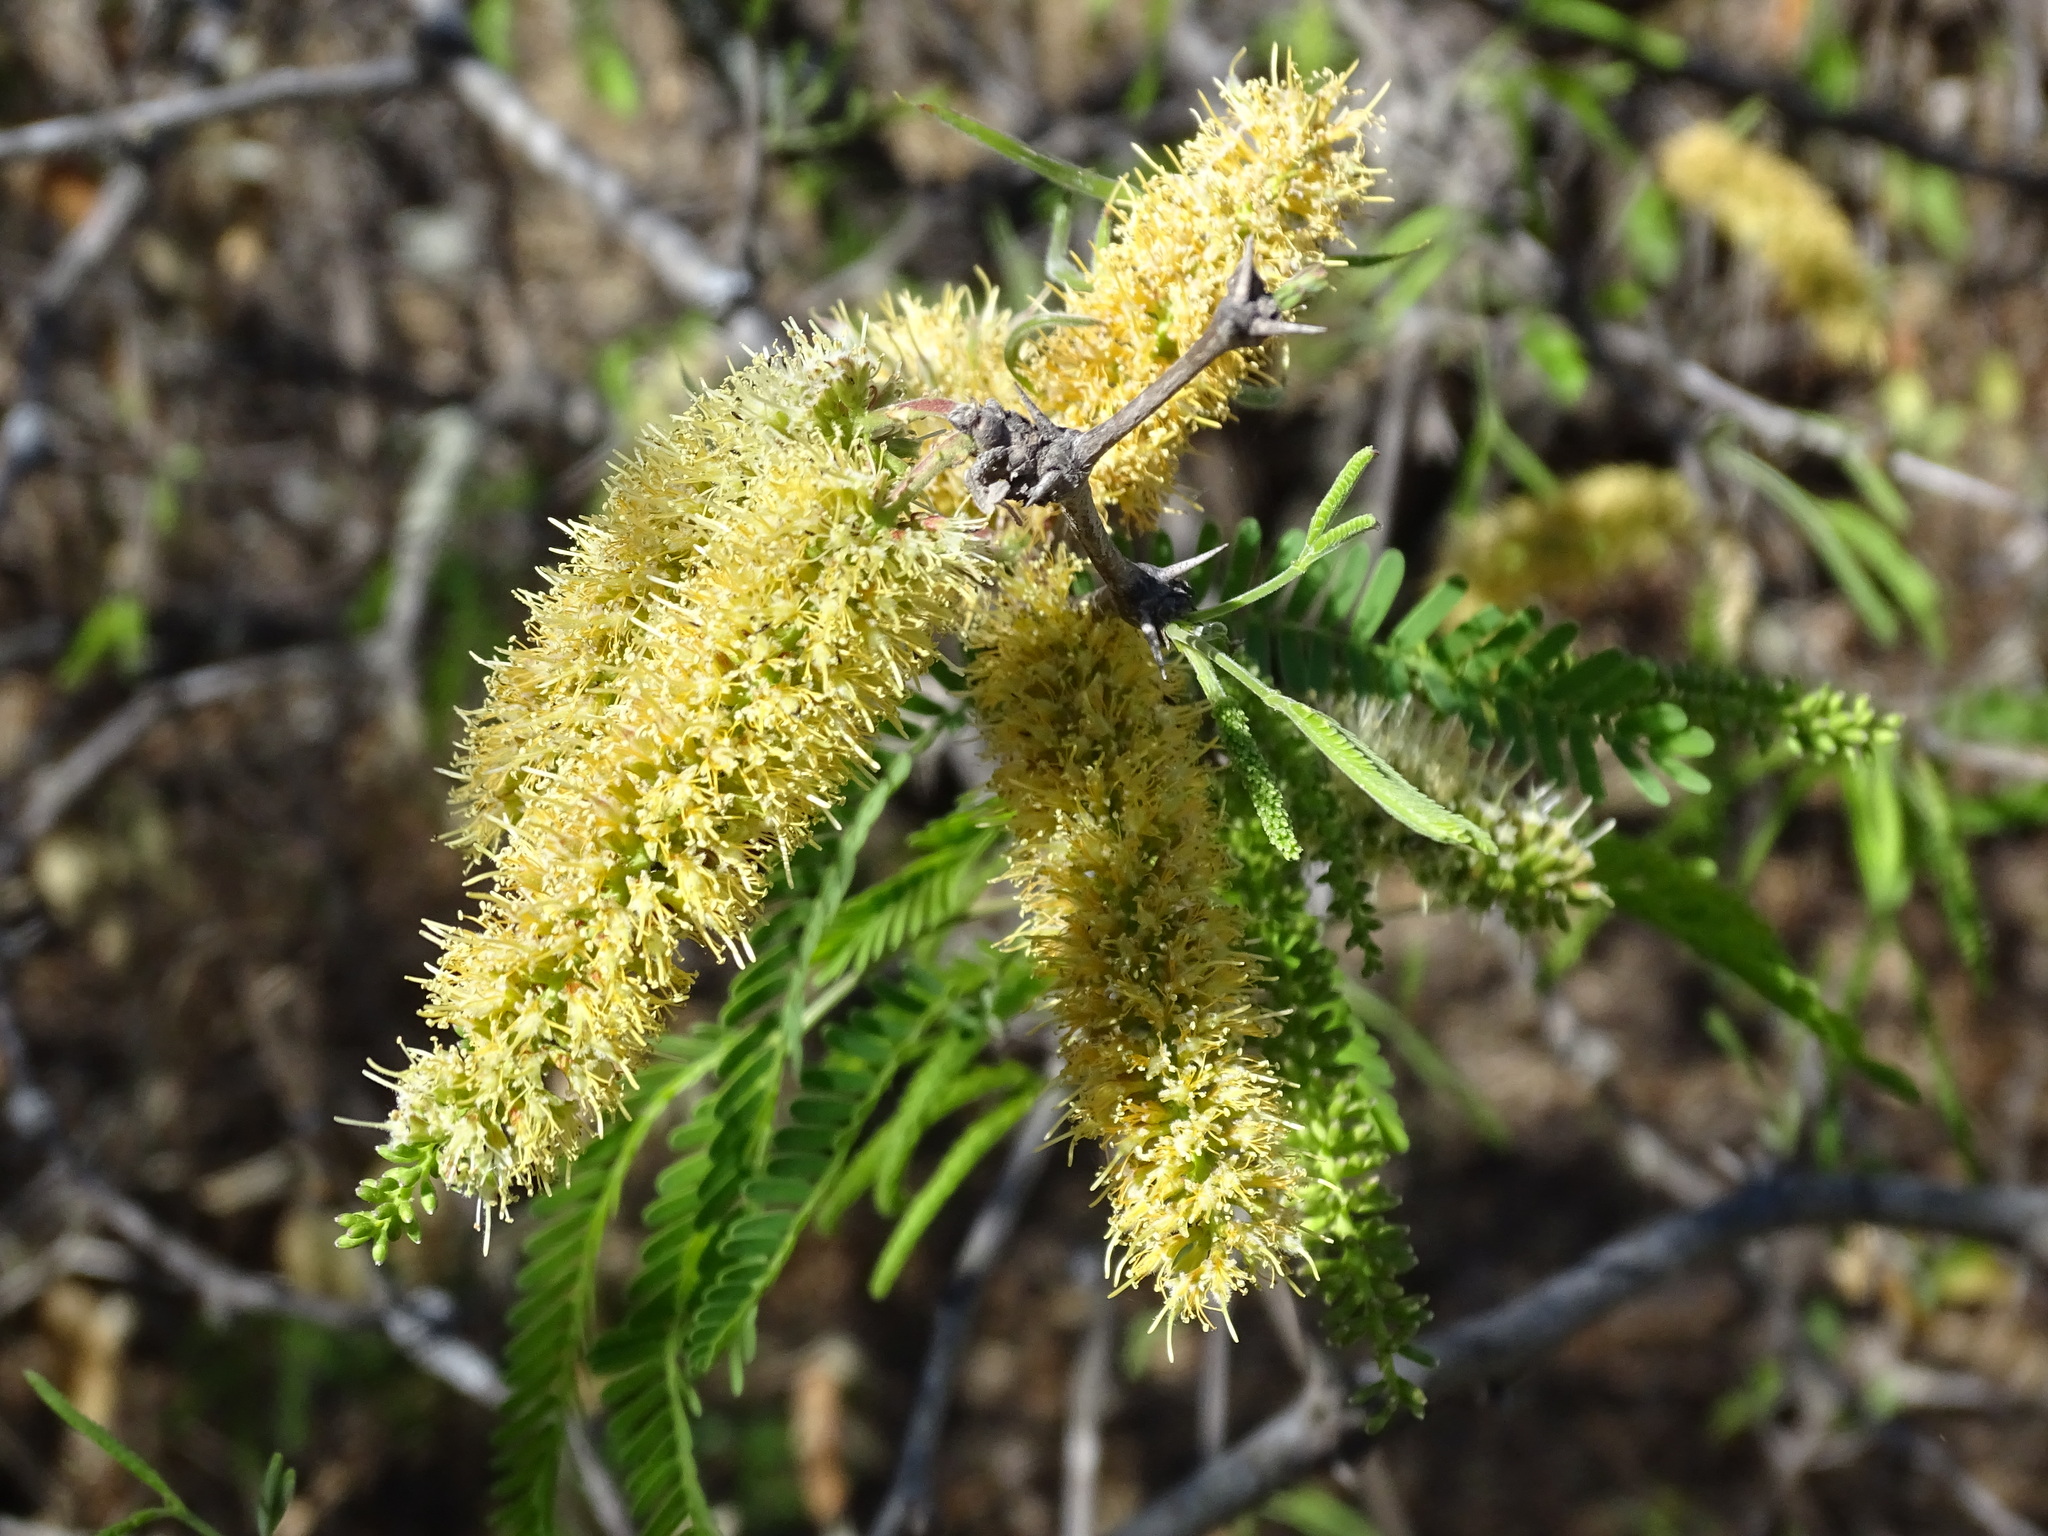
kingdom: Plantae
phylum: Tracheophyta
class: Magnoliopsida
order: Fabales
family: Fabaceae
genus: Prosopis
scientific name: Prosopis laevigata
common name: Smooth mesquite
